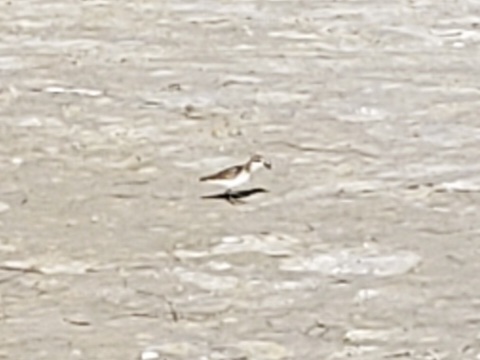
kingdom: Animalia
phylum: Chordata
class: Aves
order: Charadriiformes
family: Scolopacidae
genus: Calidris
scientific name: Calidris alba
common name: Sanderling
